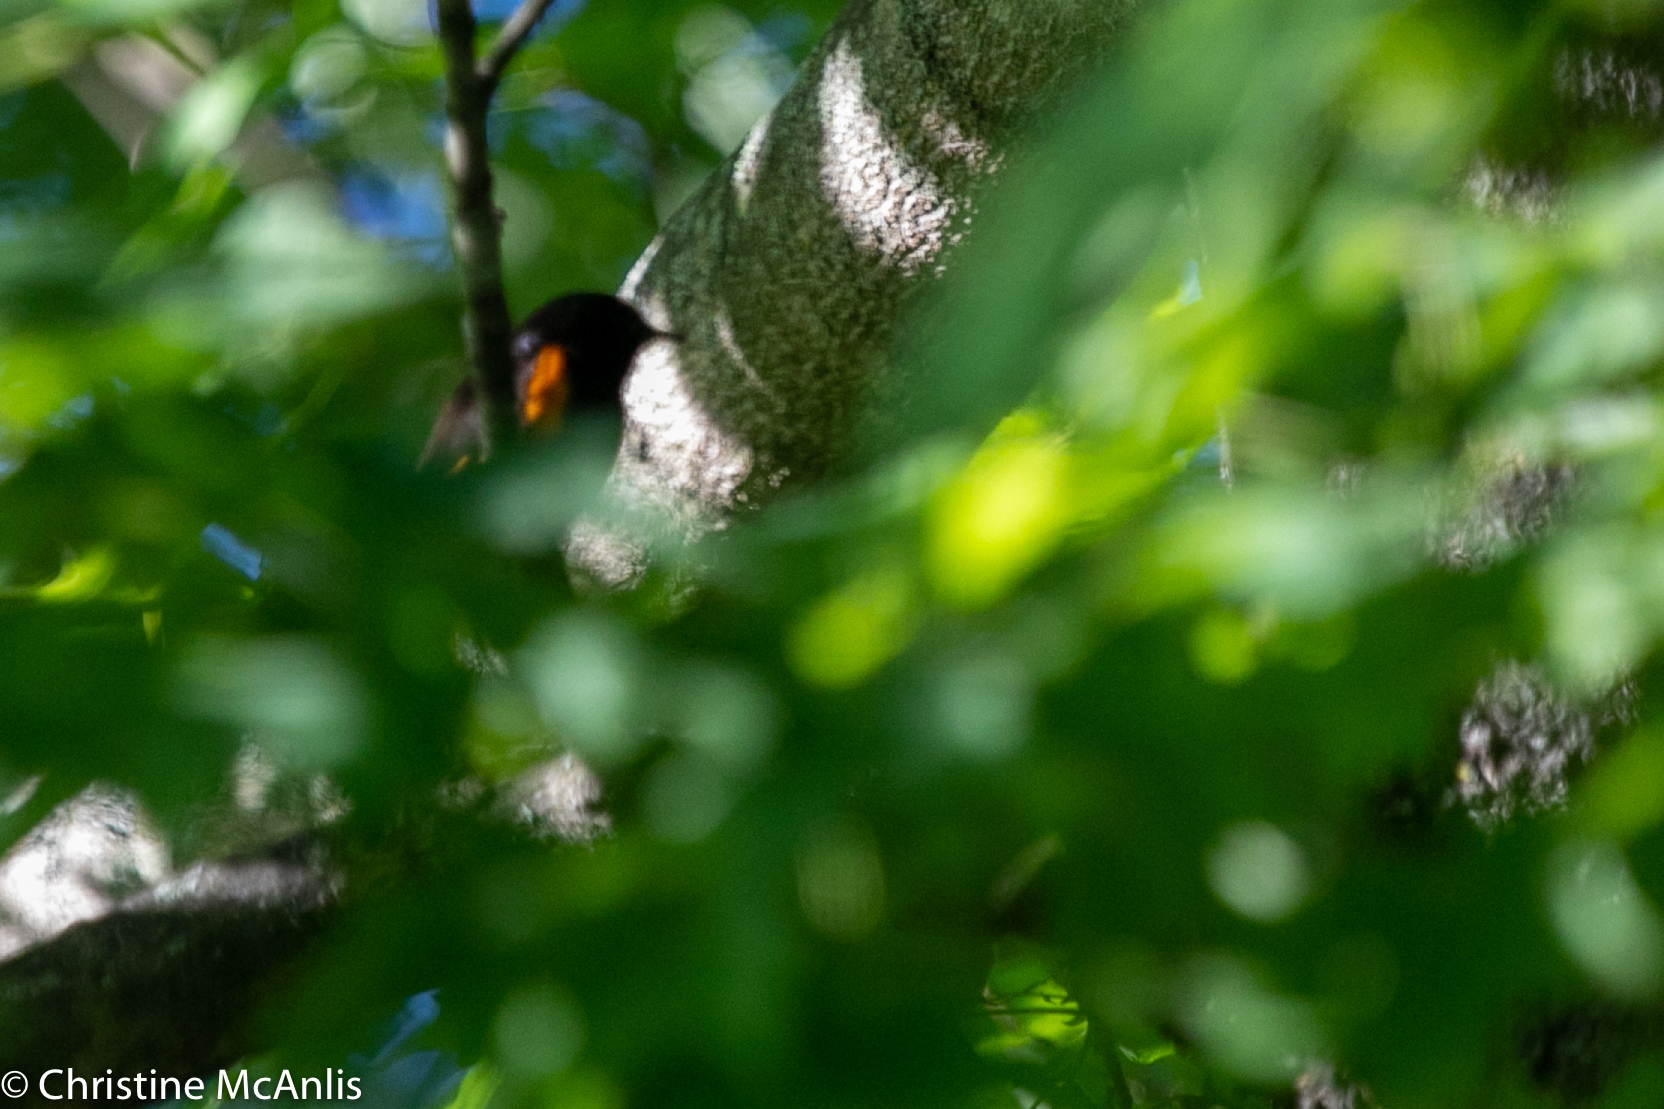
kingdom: Animalia
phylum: Chordata
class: Aves
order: Passeriformes
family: Parulidae
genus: Setophaga
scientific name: Setophaga ruticilla
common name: American redstart
